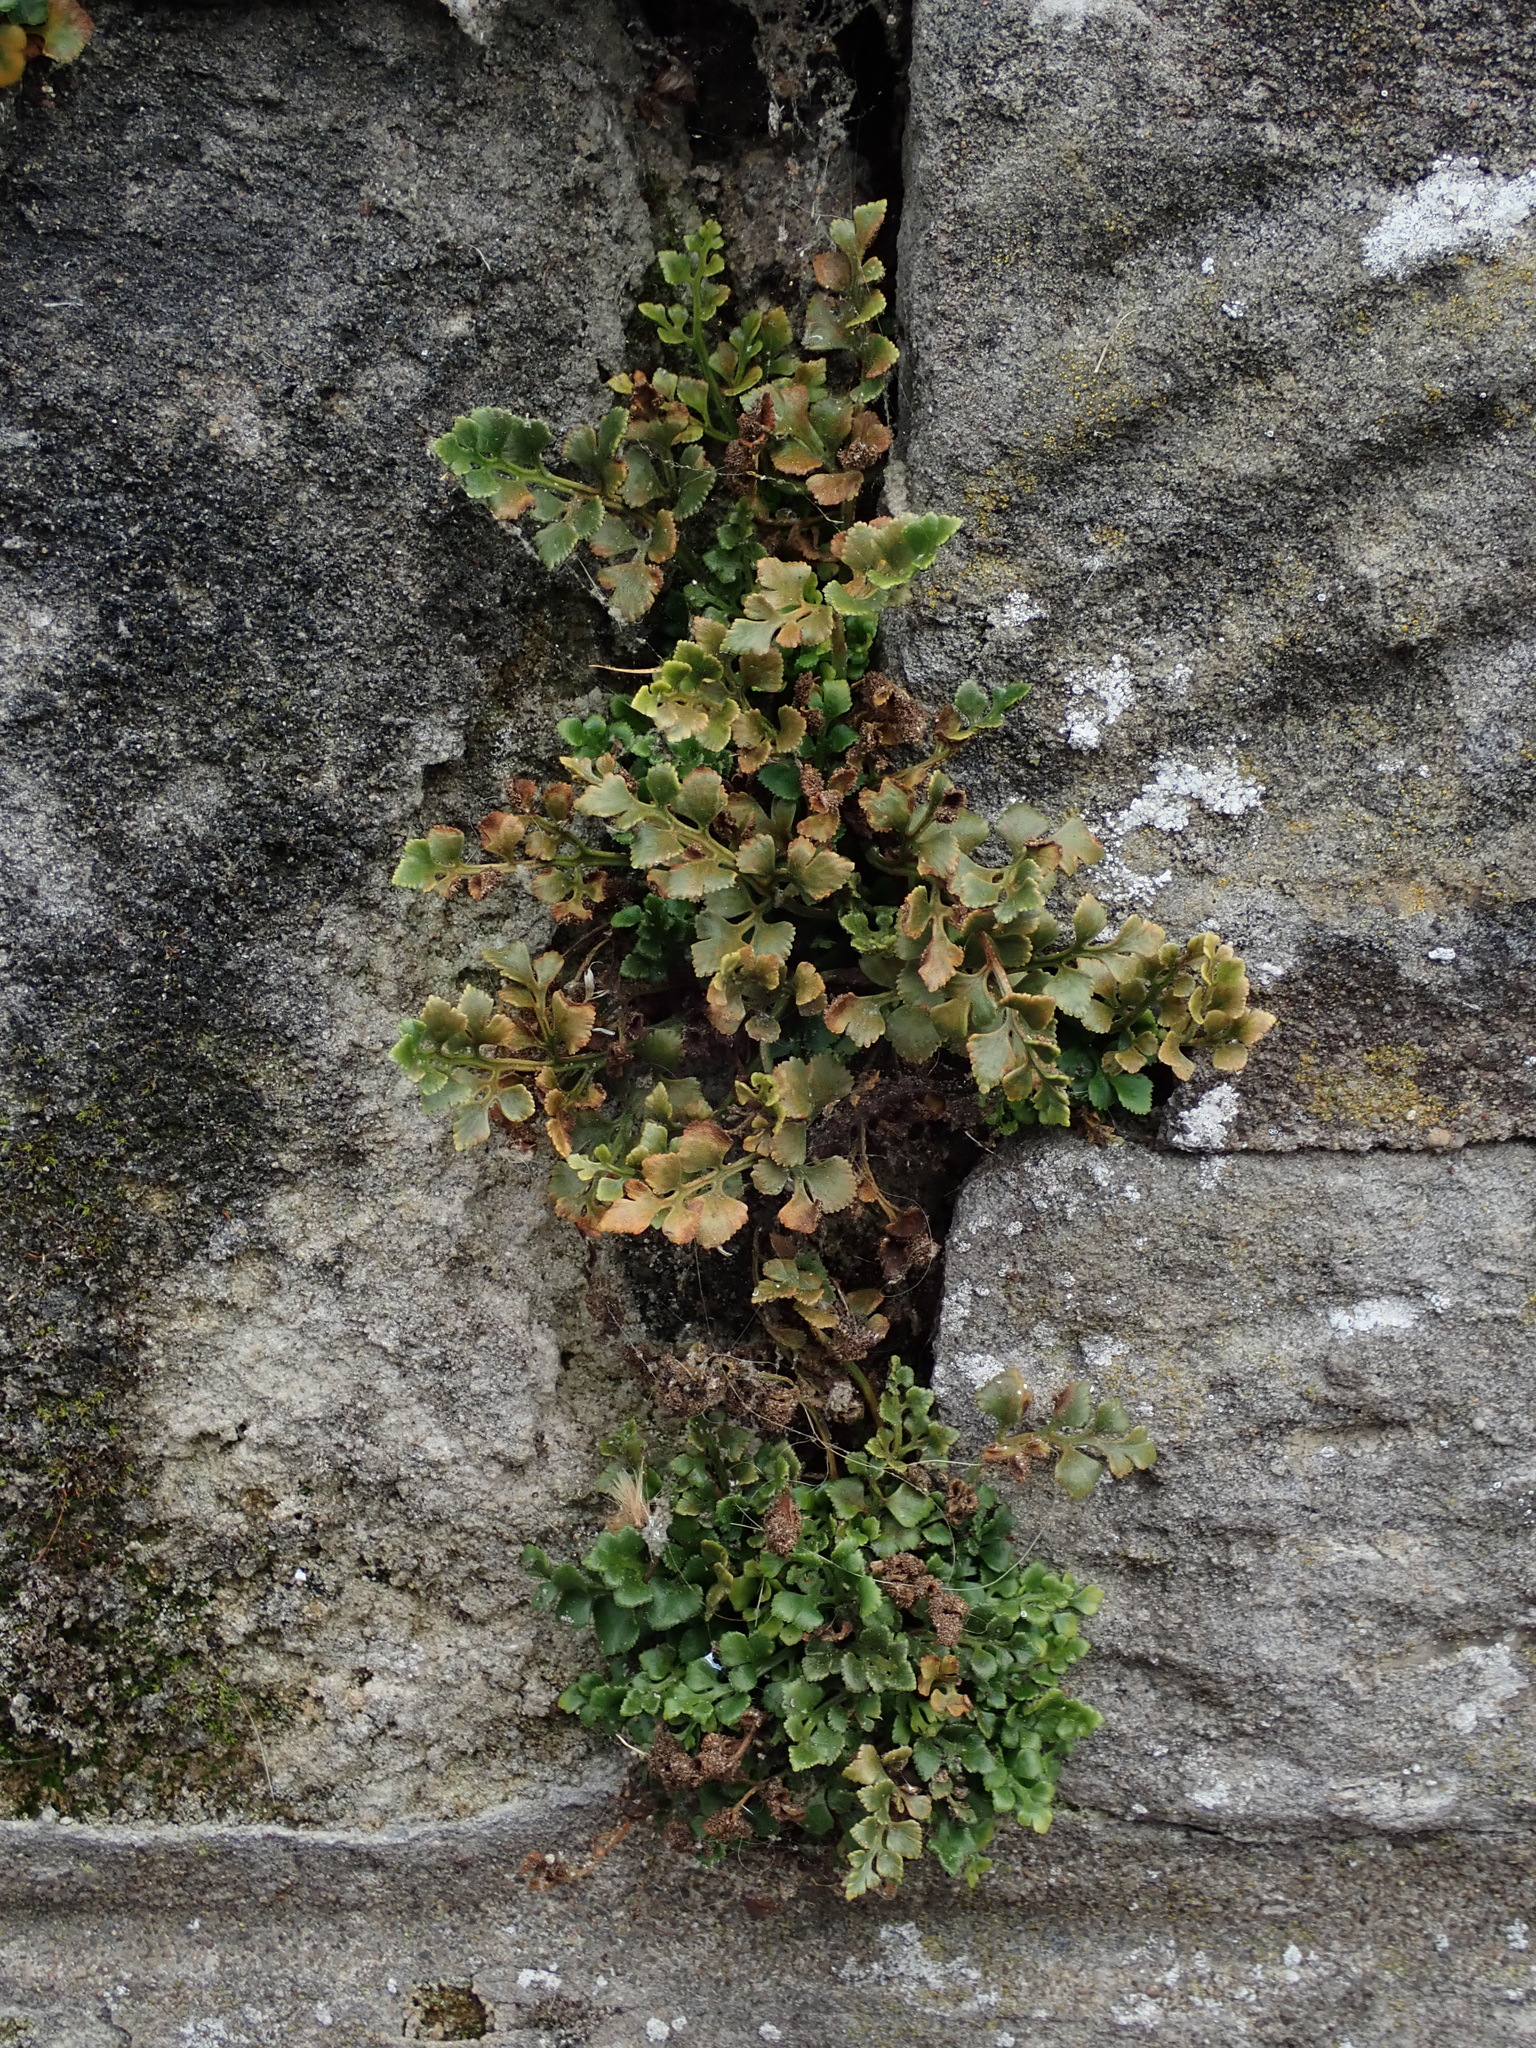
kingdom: Plantae
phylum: Tracheophyta
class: Polypodiopsida
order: Polypodiales
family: Aspleniaceae
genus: Asplenium
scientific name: Asplenium ruta-muraria
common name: Wall-rue
